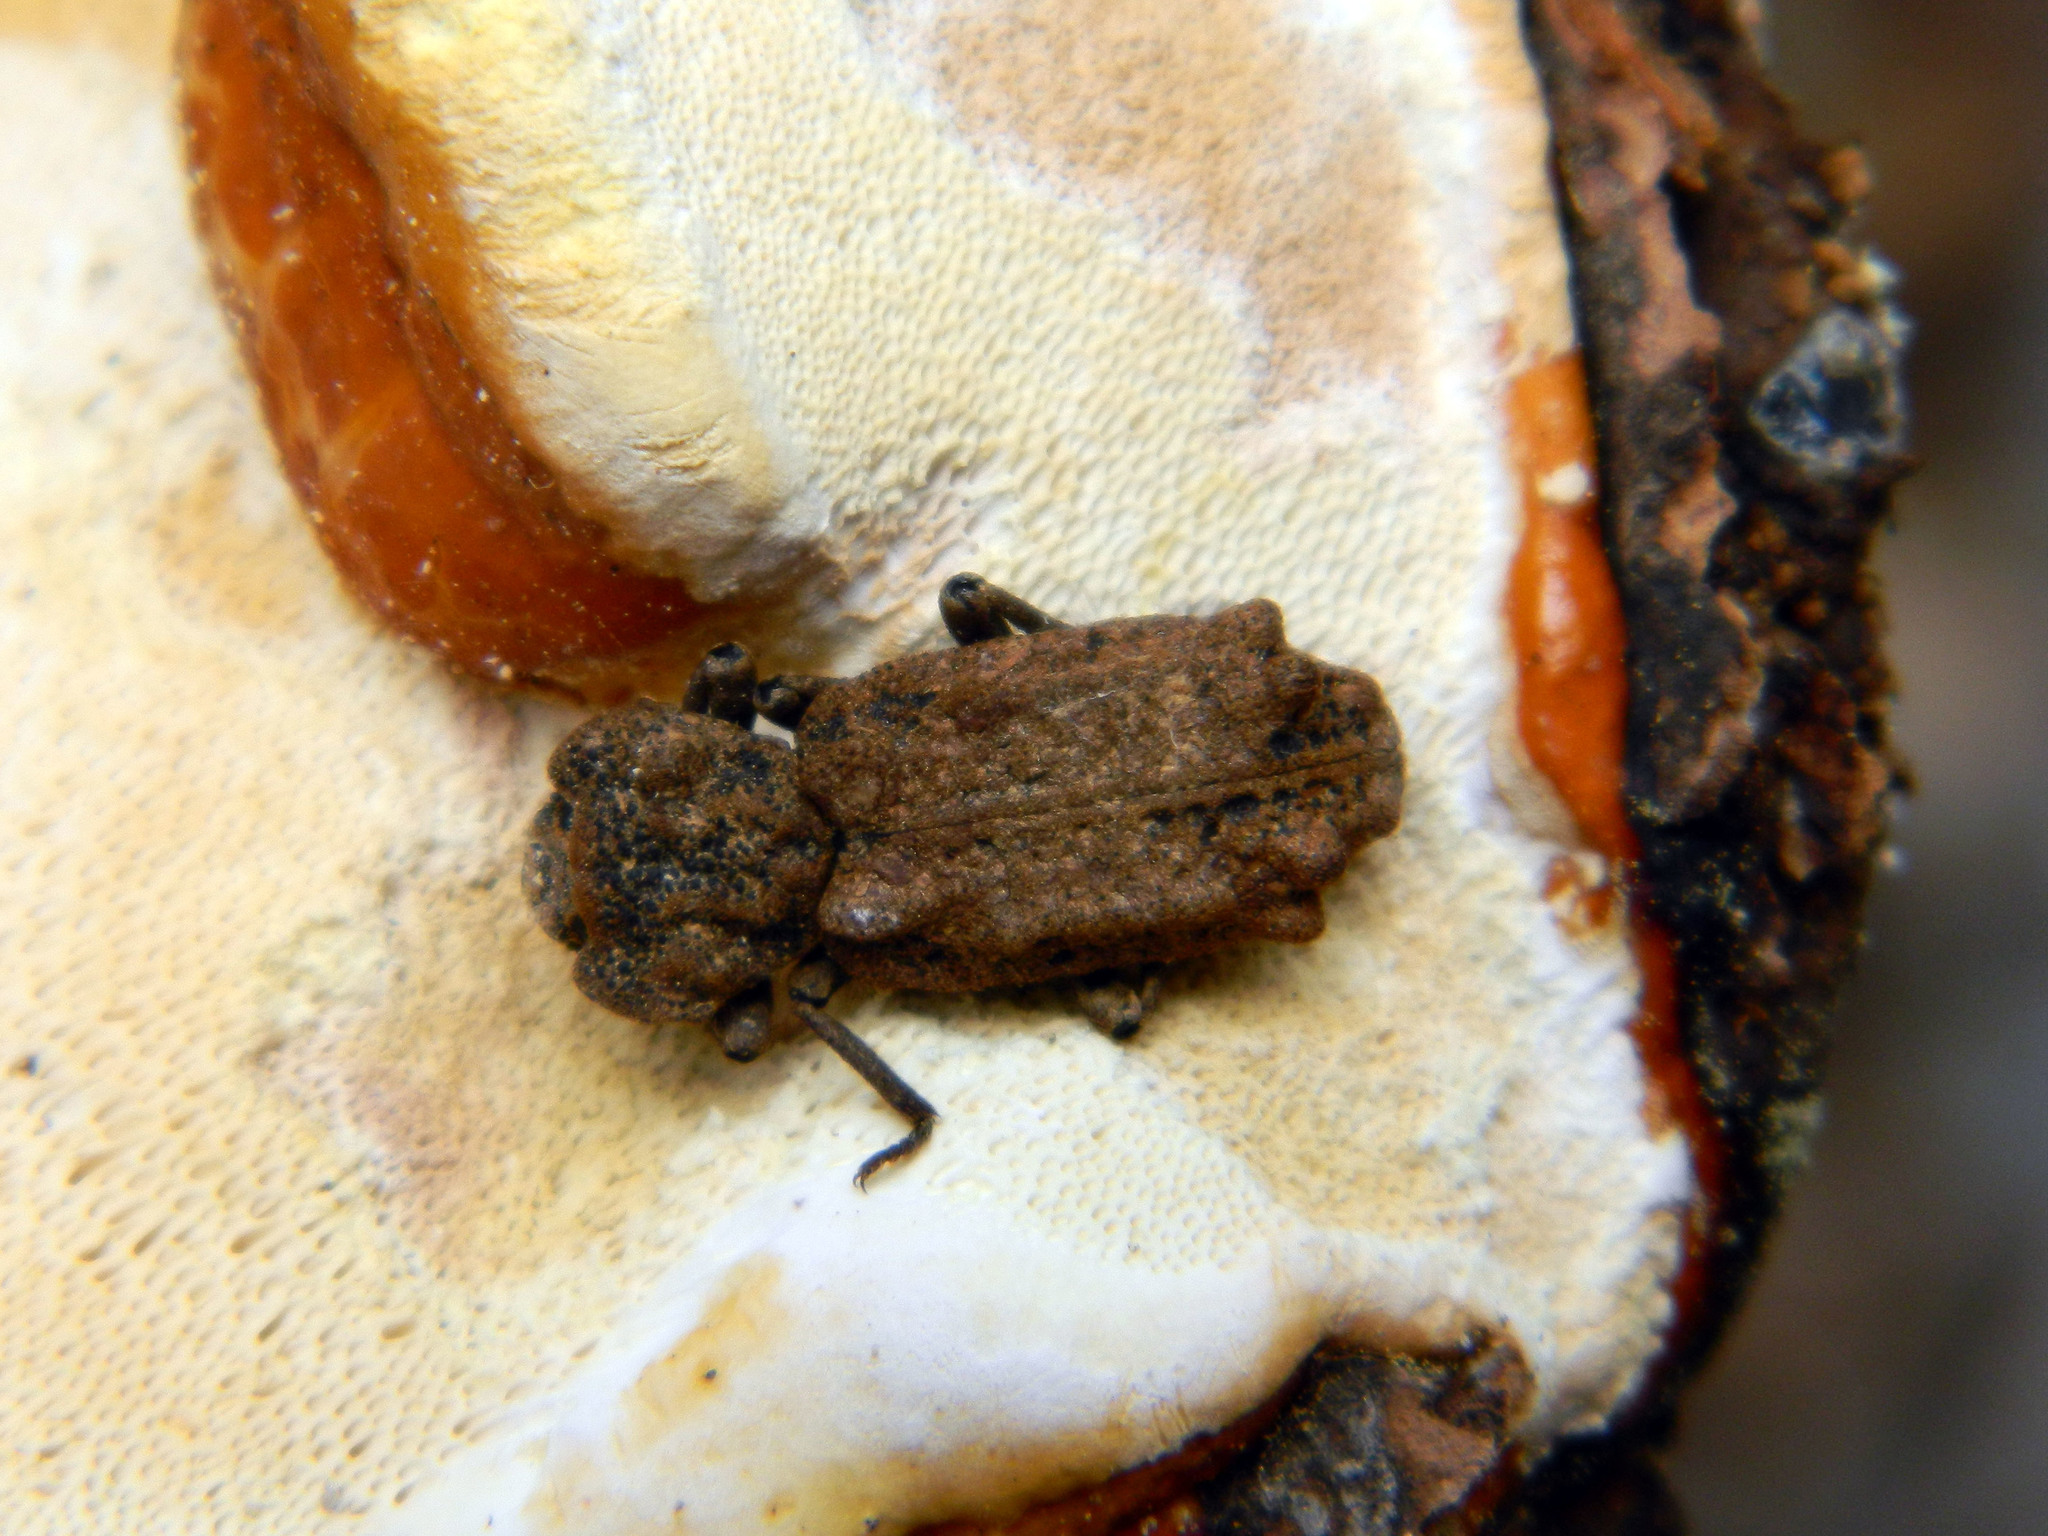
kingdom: Animalia
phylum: Arthropoda
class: Insecta
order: Coleoptera
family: Zopheridae
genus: Phellopsis
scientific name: Phellopsis obcordata
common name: Eastern ironclad beetle
